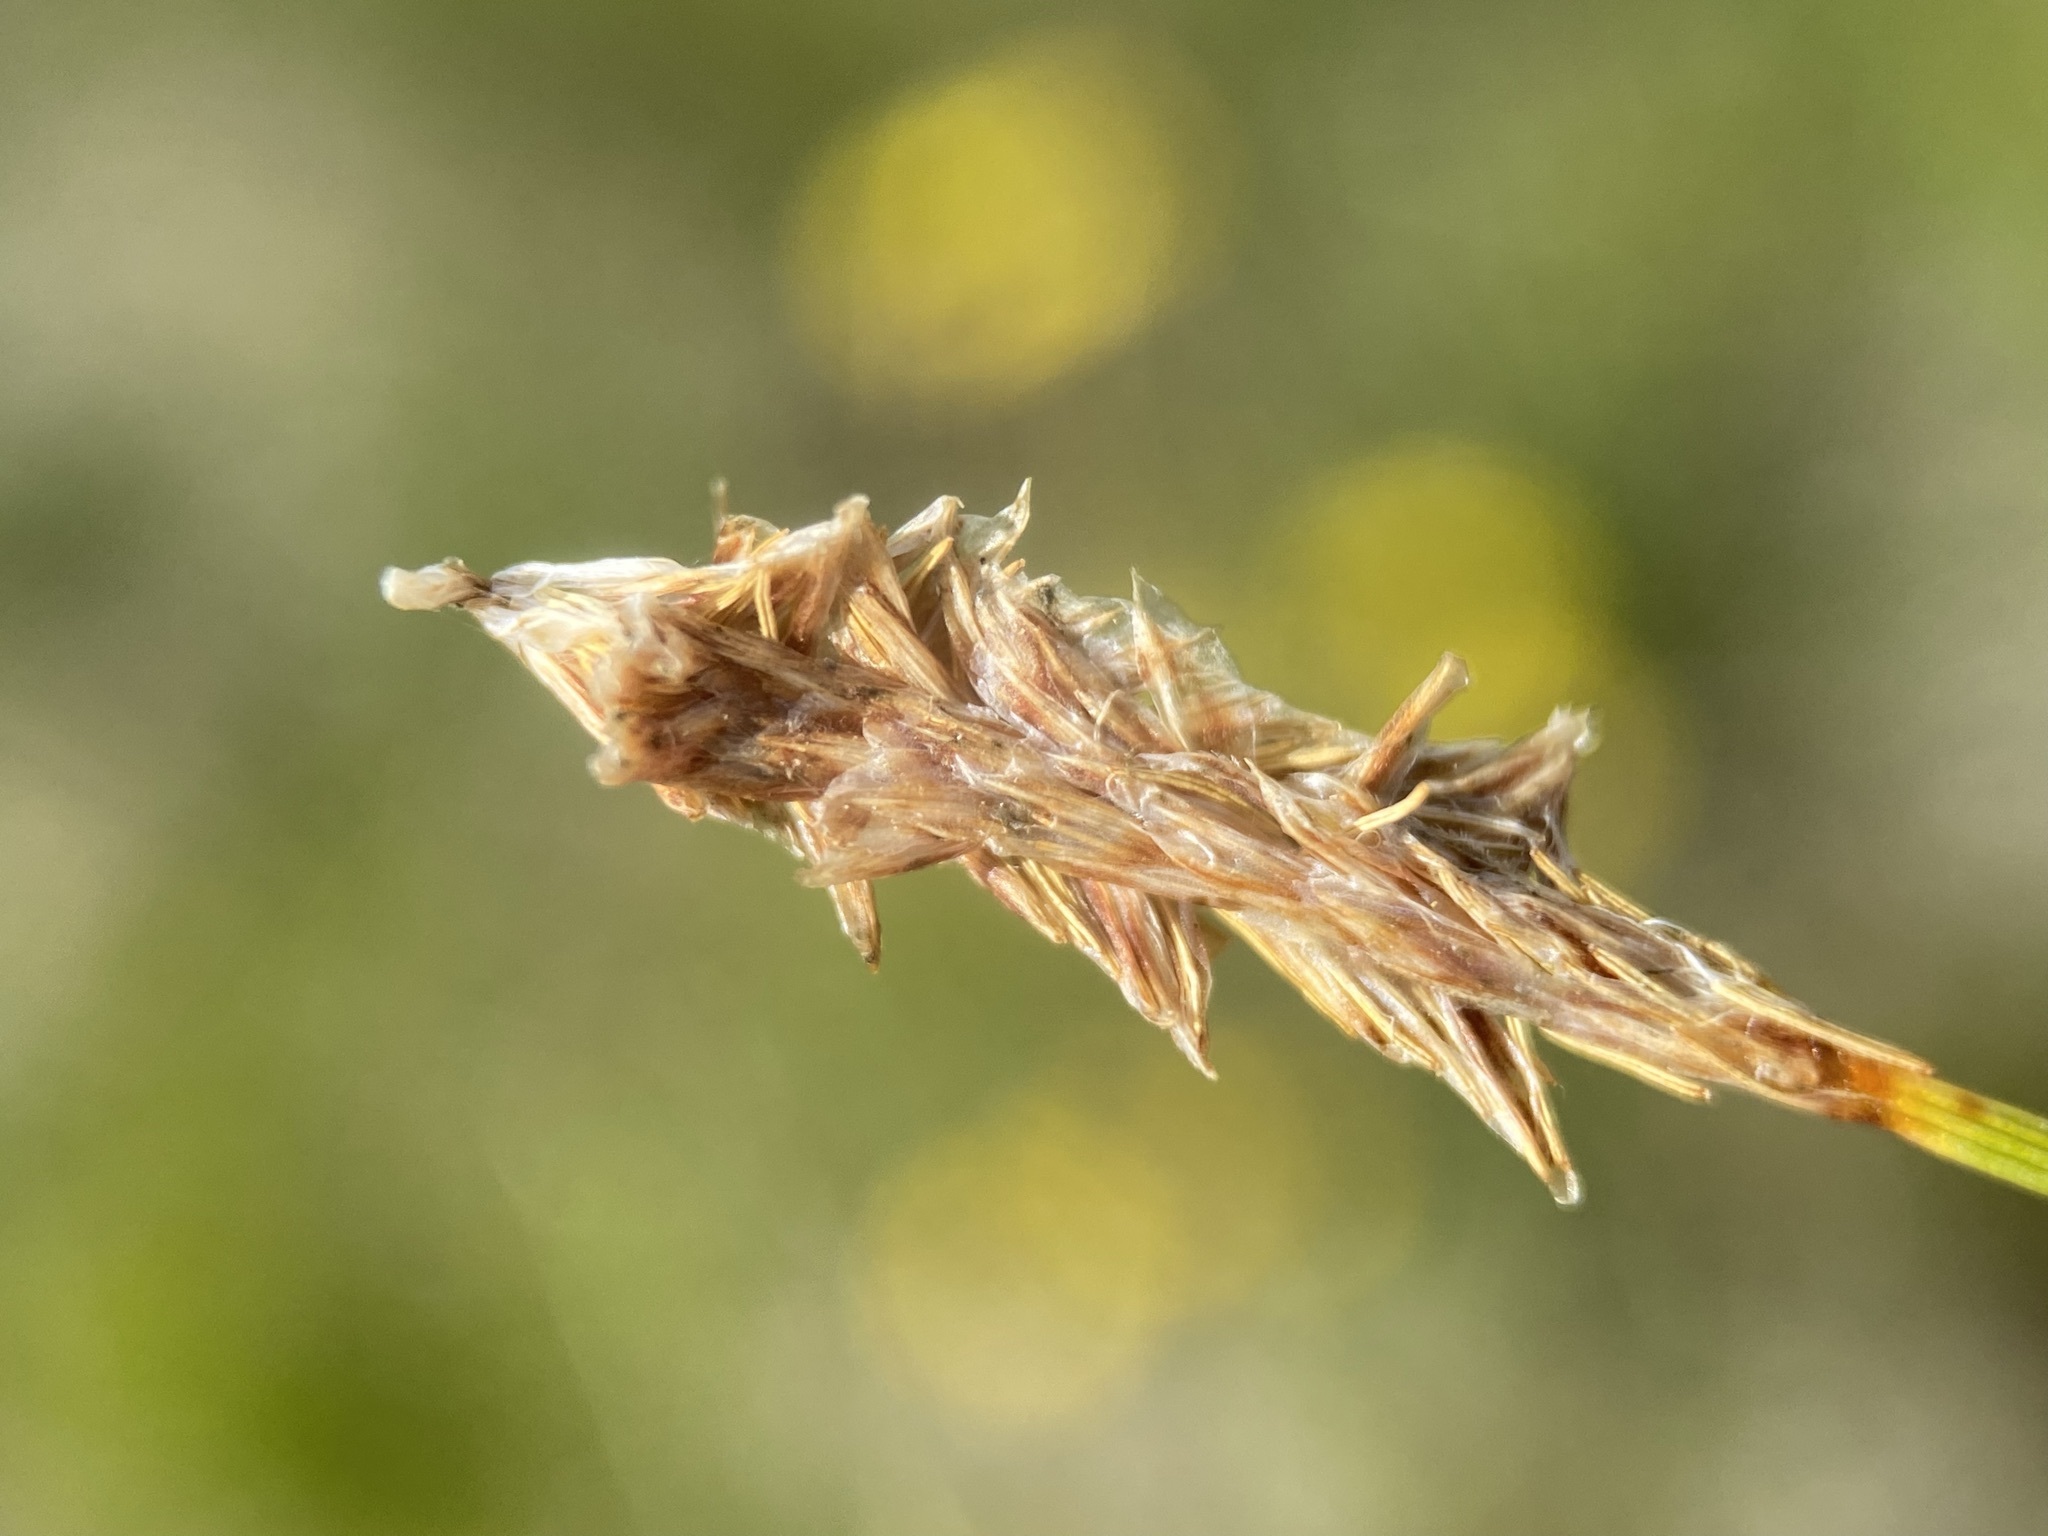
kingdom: Plantae
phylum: Tracheophyta
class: Liliopsida
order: Poales
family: Cyperaceae
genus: Carex
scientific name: Carex scirpoidea
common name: Canada single-spike sedge
